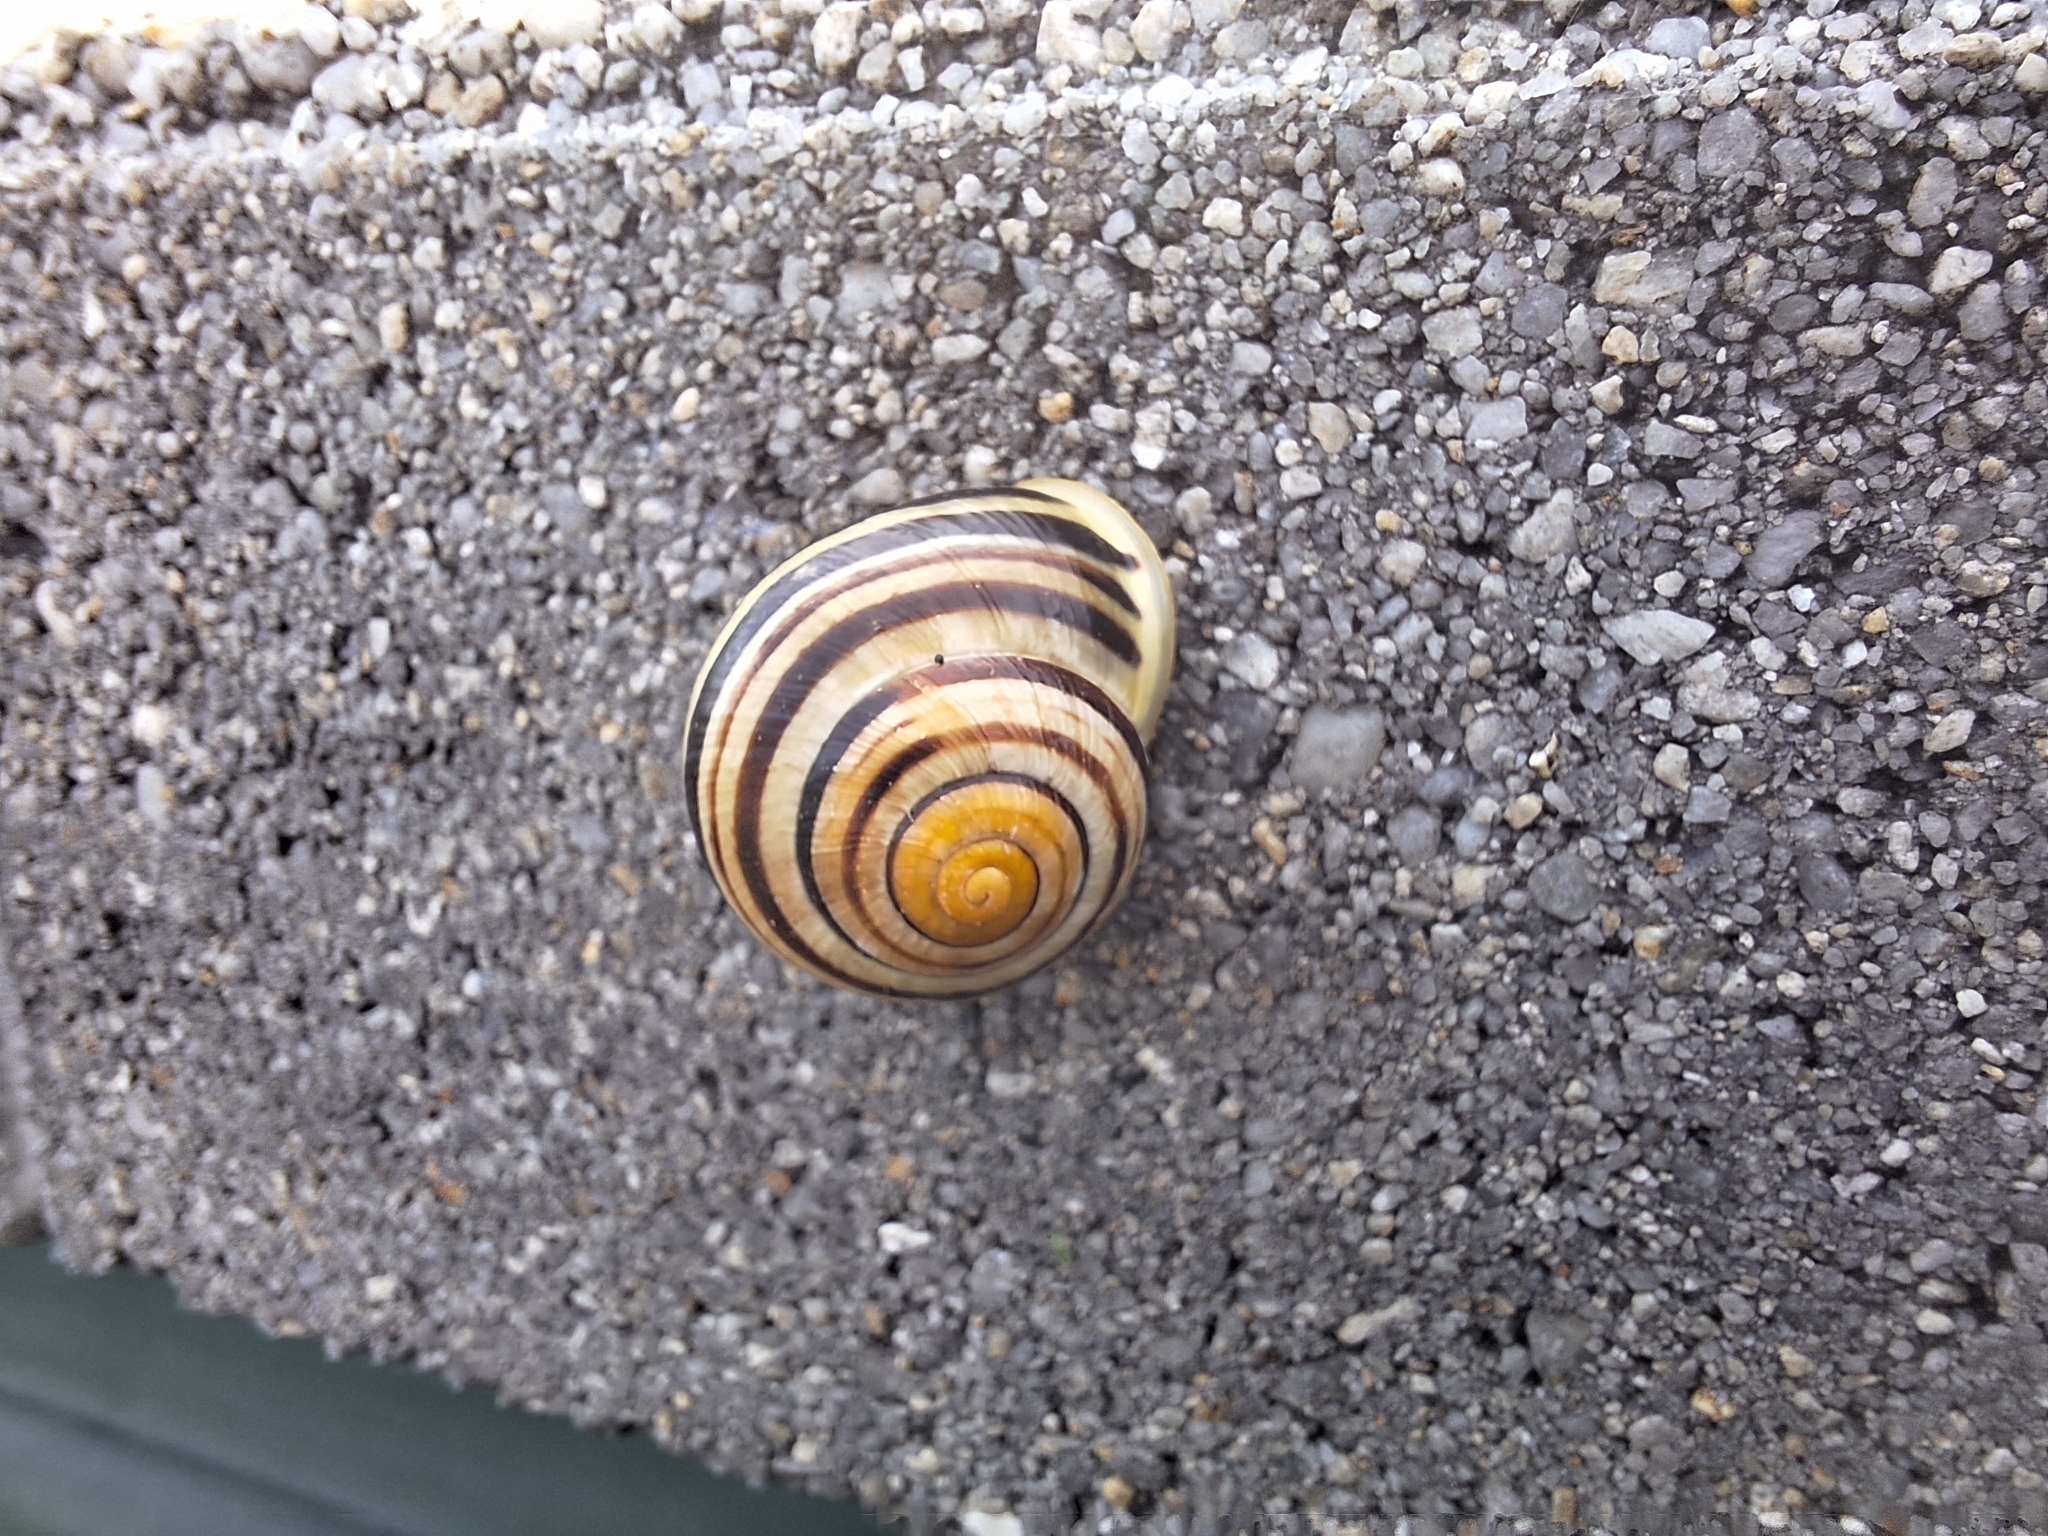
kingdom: Animalia
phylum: Mollusca
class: Gastropoda
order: Stylommatophora
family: Helicidae
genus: Cepaea
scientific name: Cepaea hortensis
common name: White-lip gardensnail
